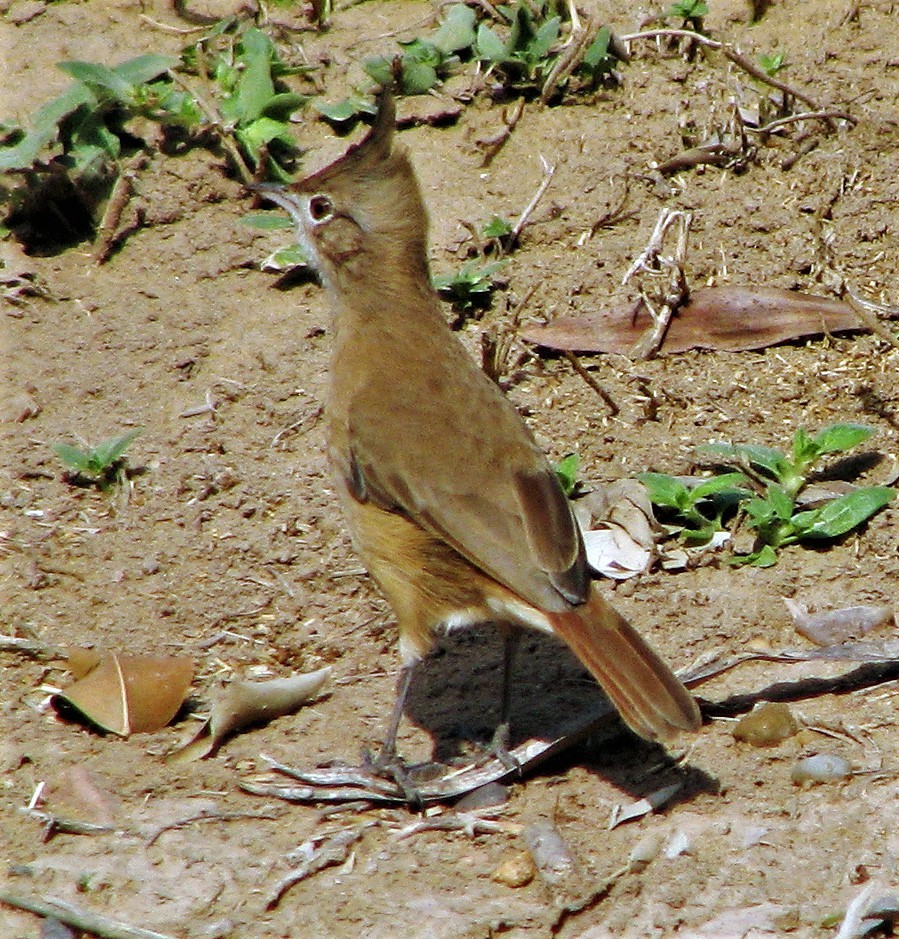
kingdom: Animalia
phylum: Chordata
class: Aves
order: Passeriformes
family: Furnariidae
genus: Furnarius
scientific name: Furnarius cristatus
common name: Crested hornero
